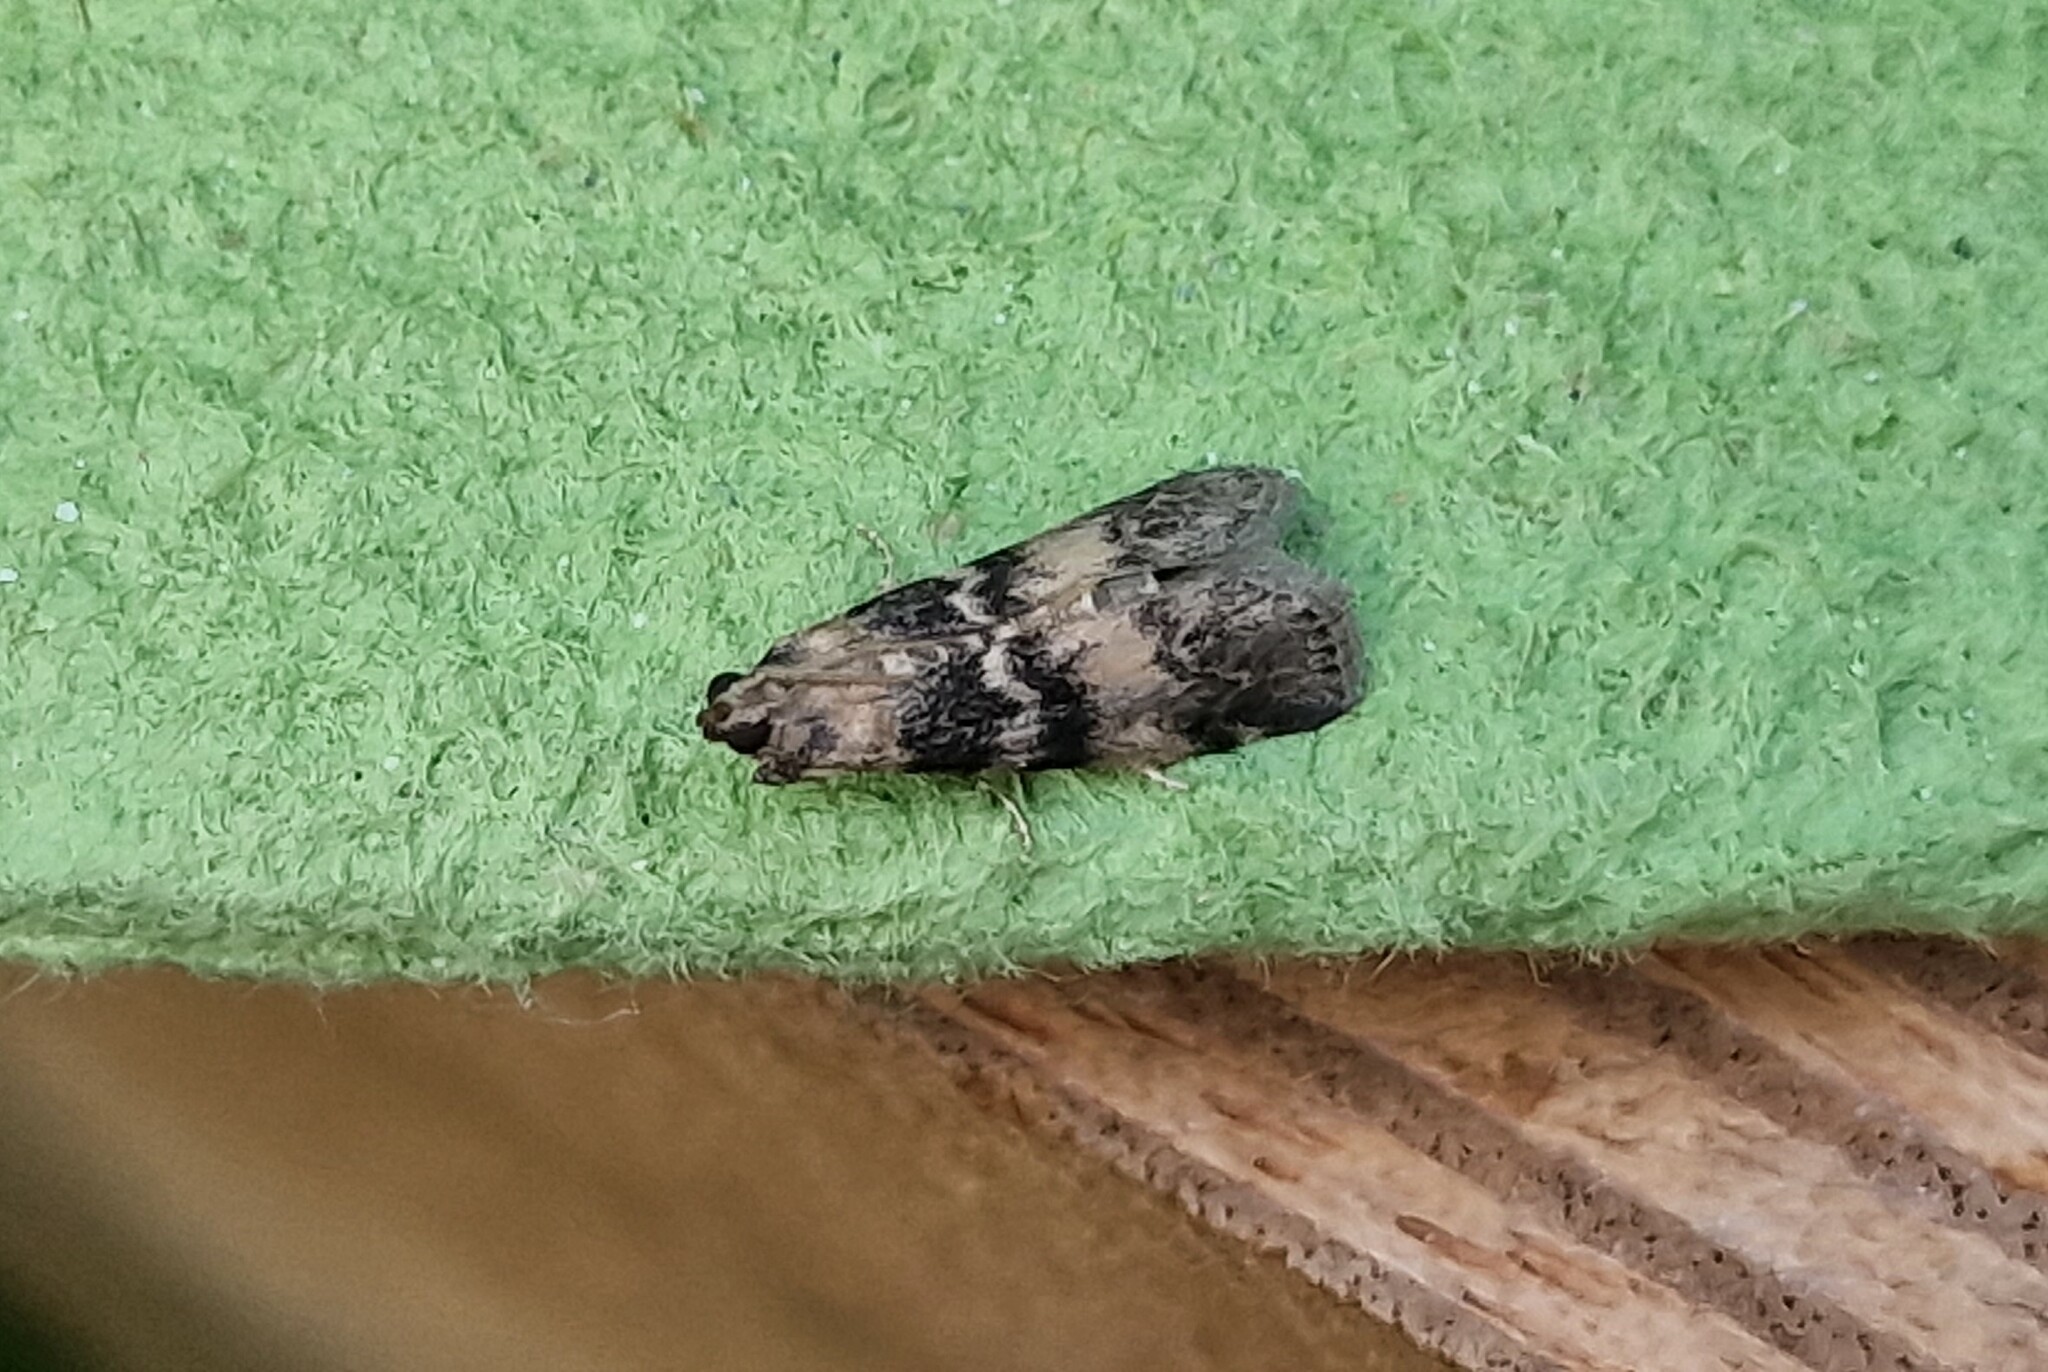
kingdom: Animalia
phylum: Arthropoda
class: Insecta
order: Lepidoptera
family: Pyralidae
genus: Euzophera
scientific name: Euzophera pinguis
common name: Ash-bark knot-horn
